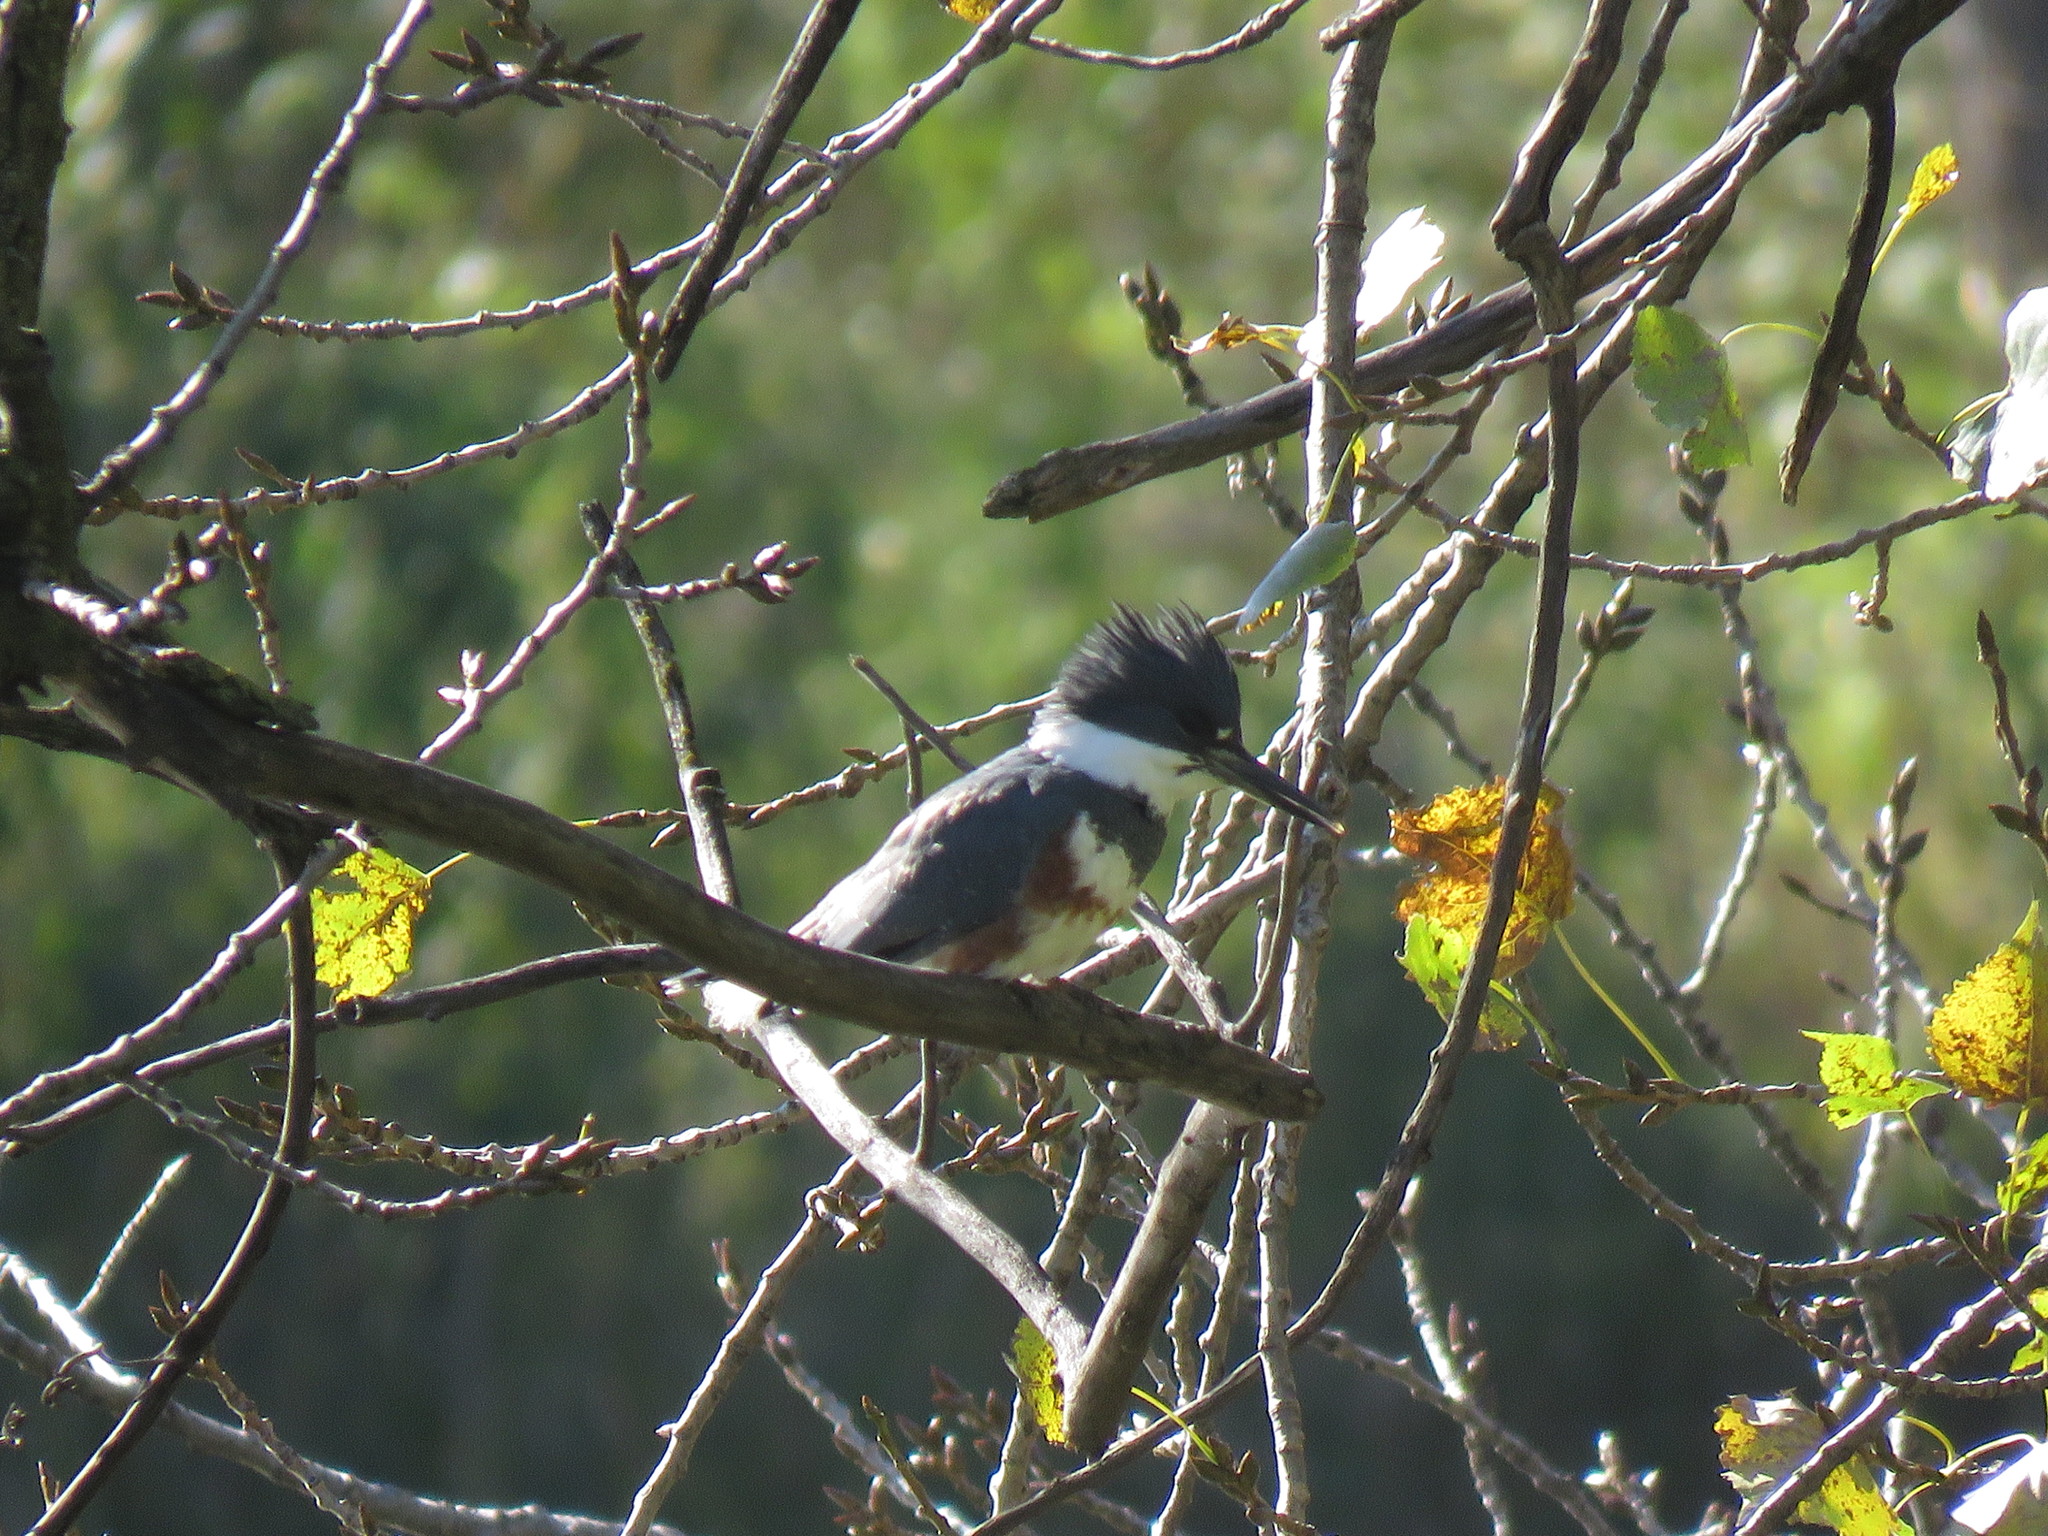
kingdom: Animalia
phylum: Chordata
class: Aves
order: Coraciiformes
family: Alcedinidae
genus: Megaceryle
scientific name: Megaceryle alcyon
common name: Belted kingfisher
